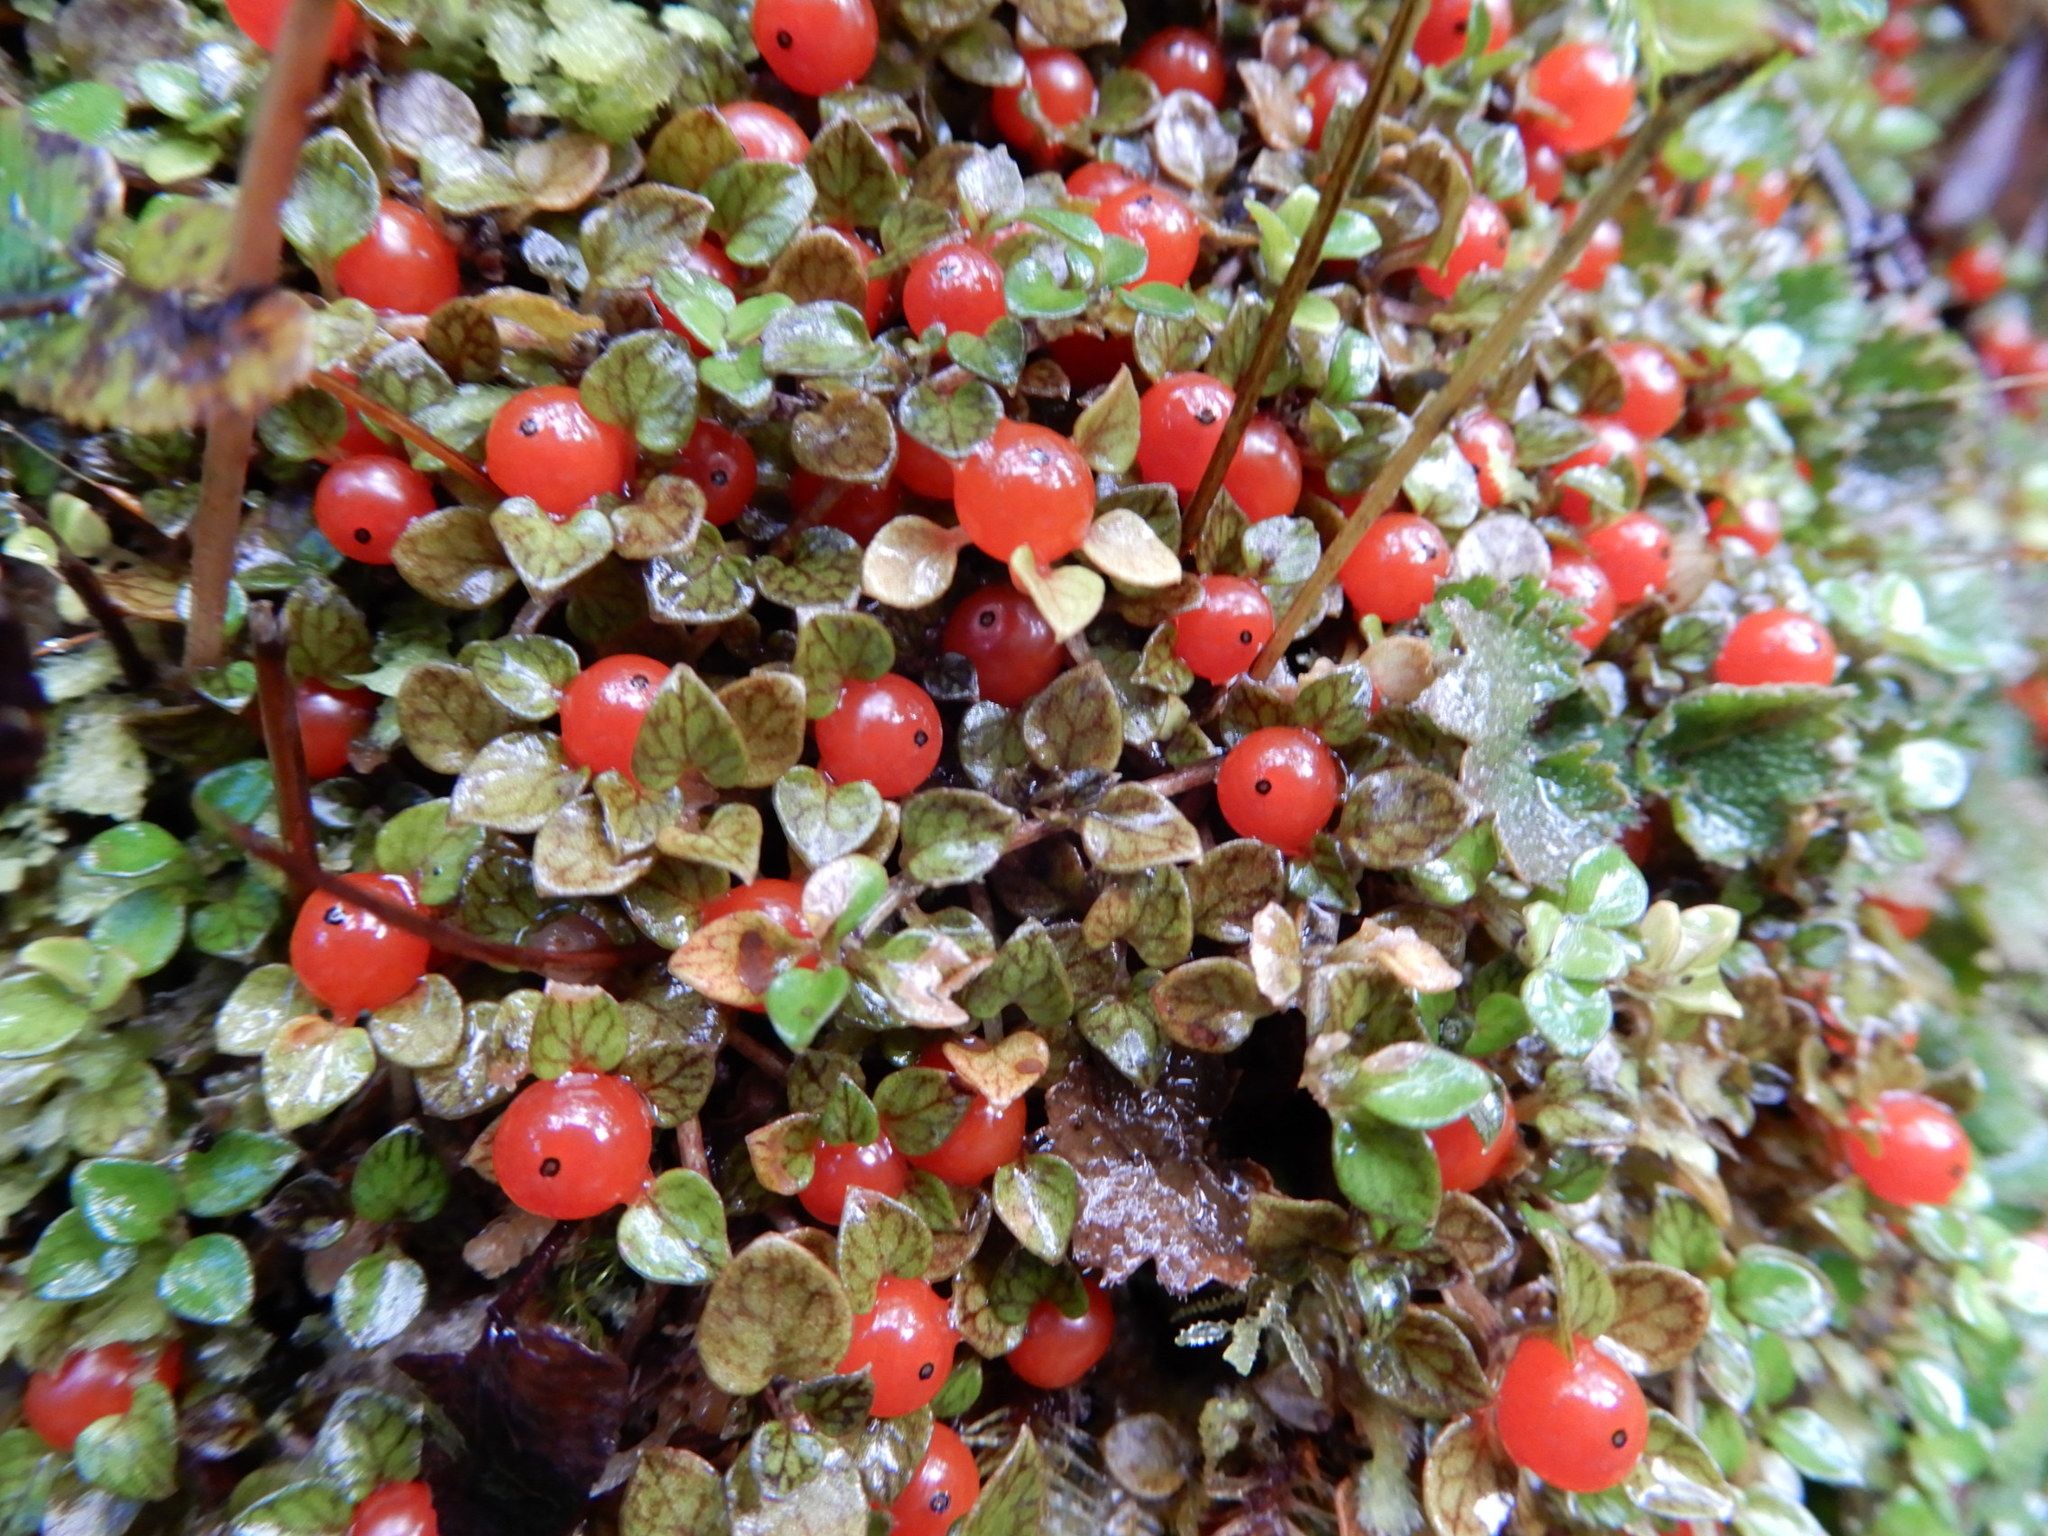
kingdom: Plantae
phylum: Tracheophyta
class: Magnoliopsida
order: Gentianales
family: Rubiaceae
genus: Nertera
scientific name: Nertera granadensis
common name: Beadplant
